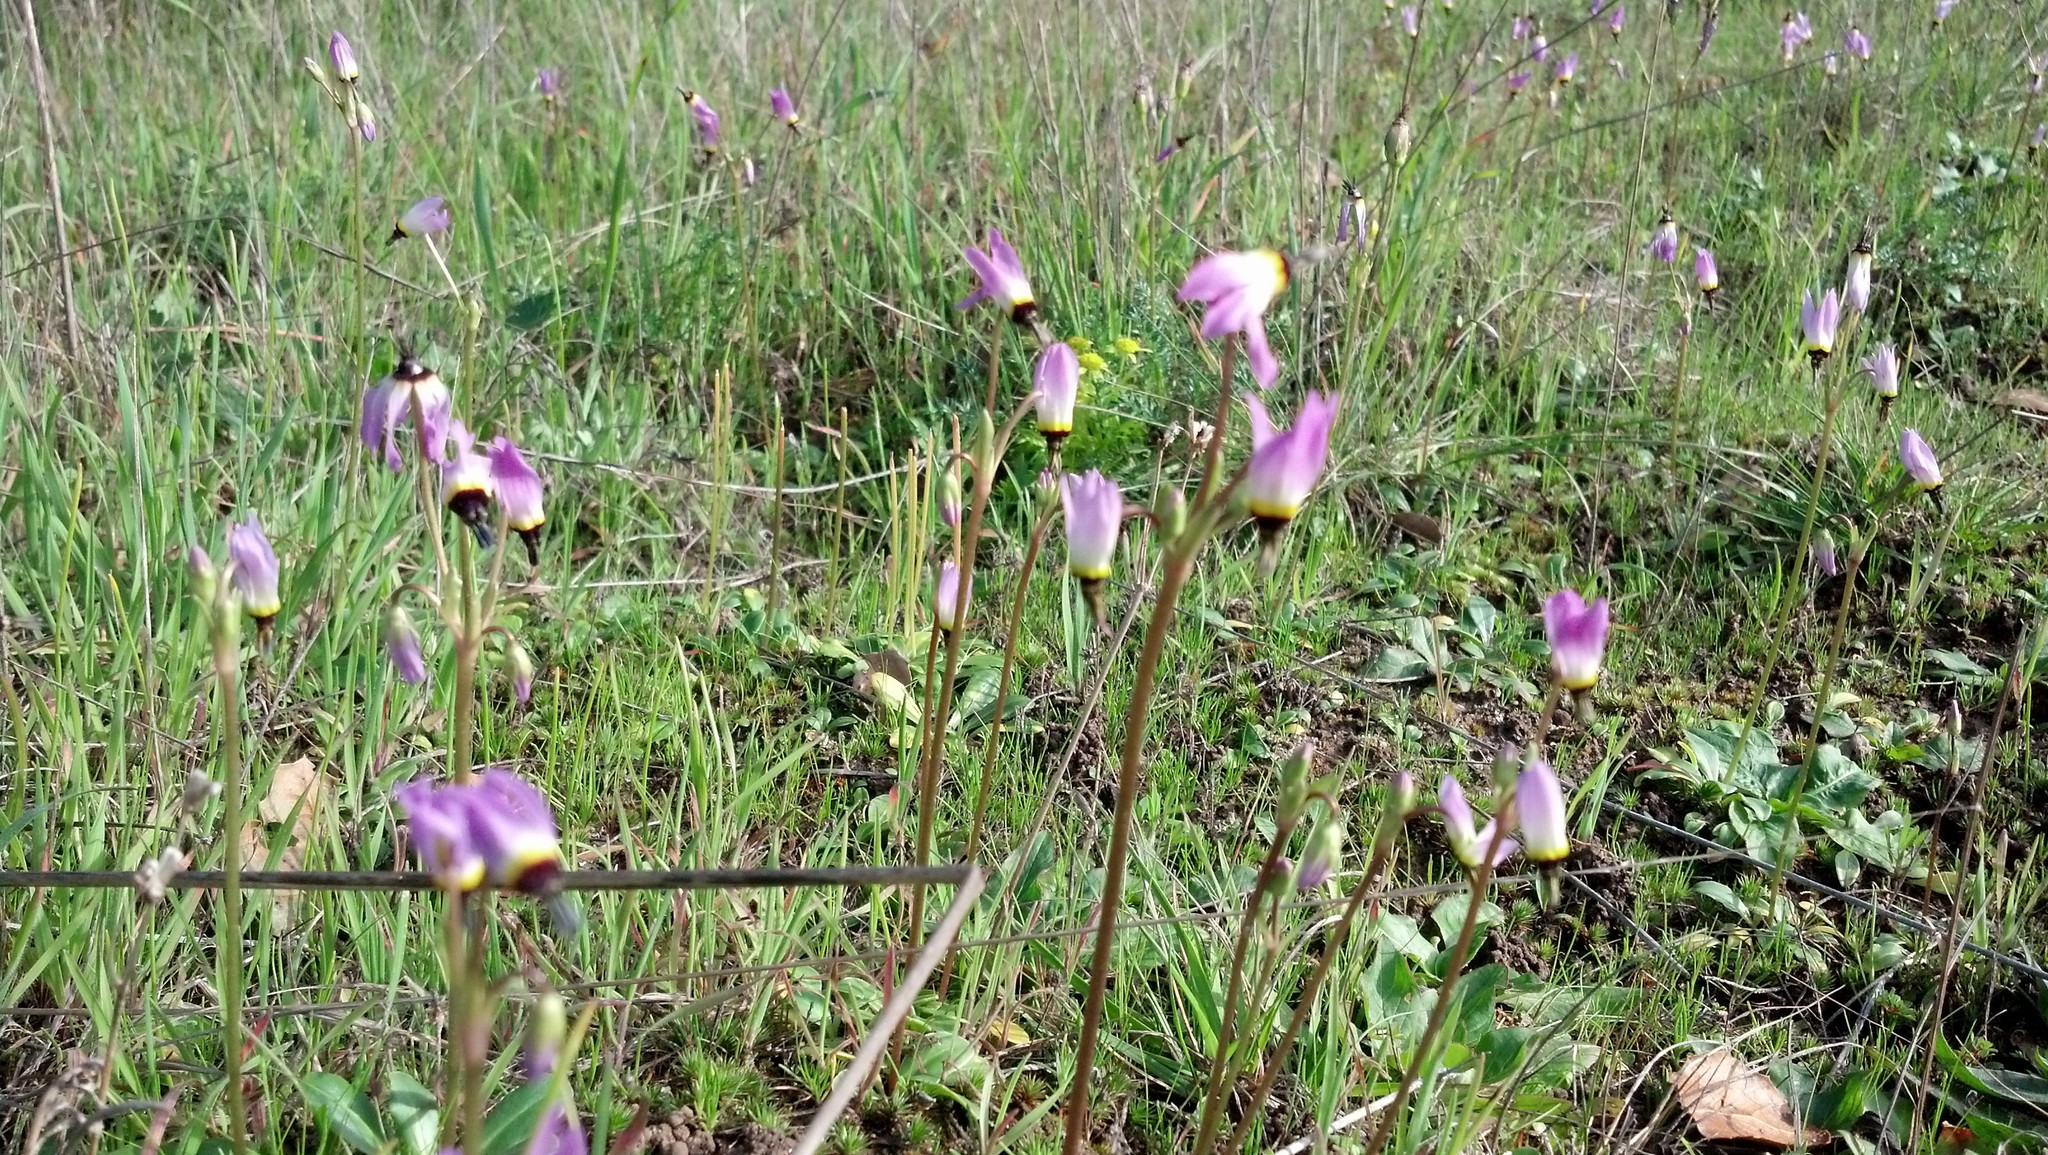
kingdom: Plantae
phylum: Tracheophyta
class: Magnoliopsida
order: Ericales
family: Primulaceae
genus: Dodecatheon
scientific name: Dodecatheon clevelandii
